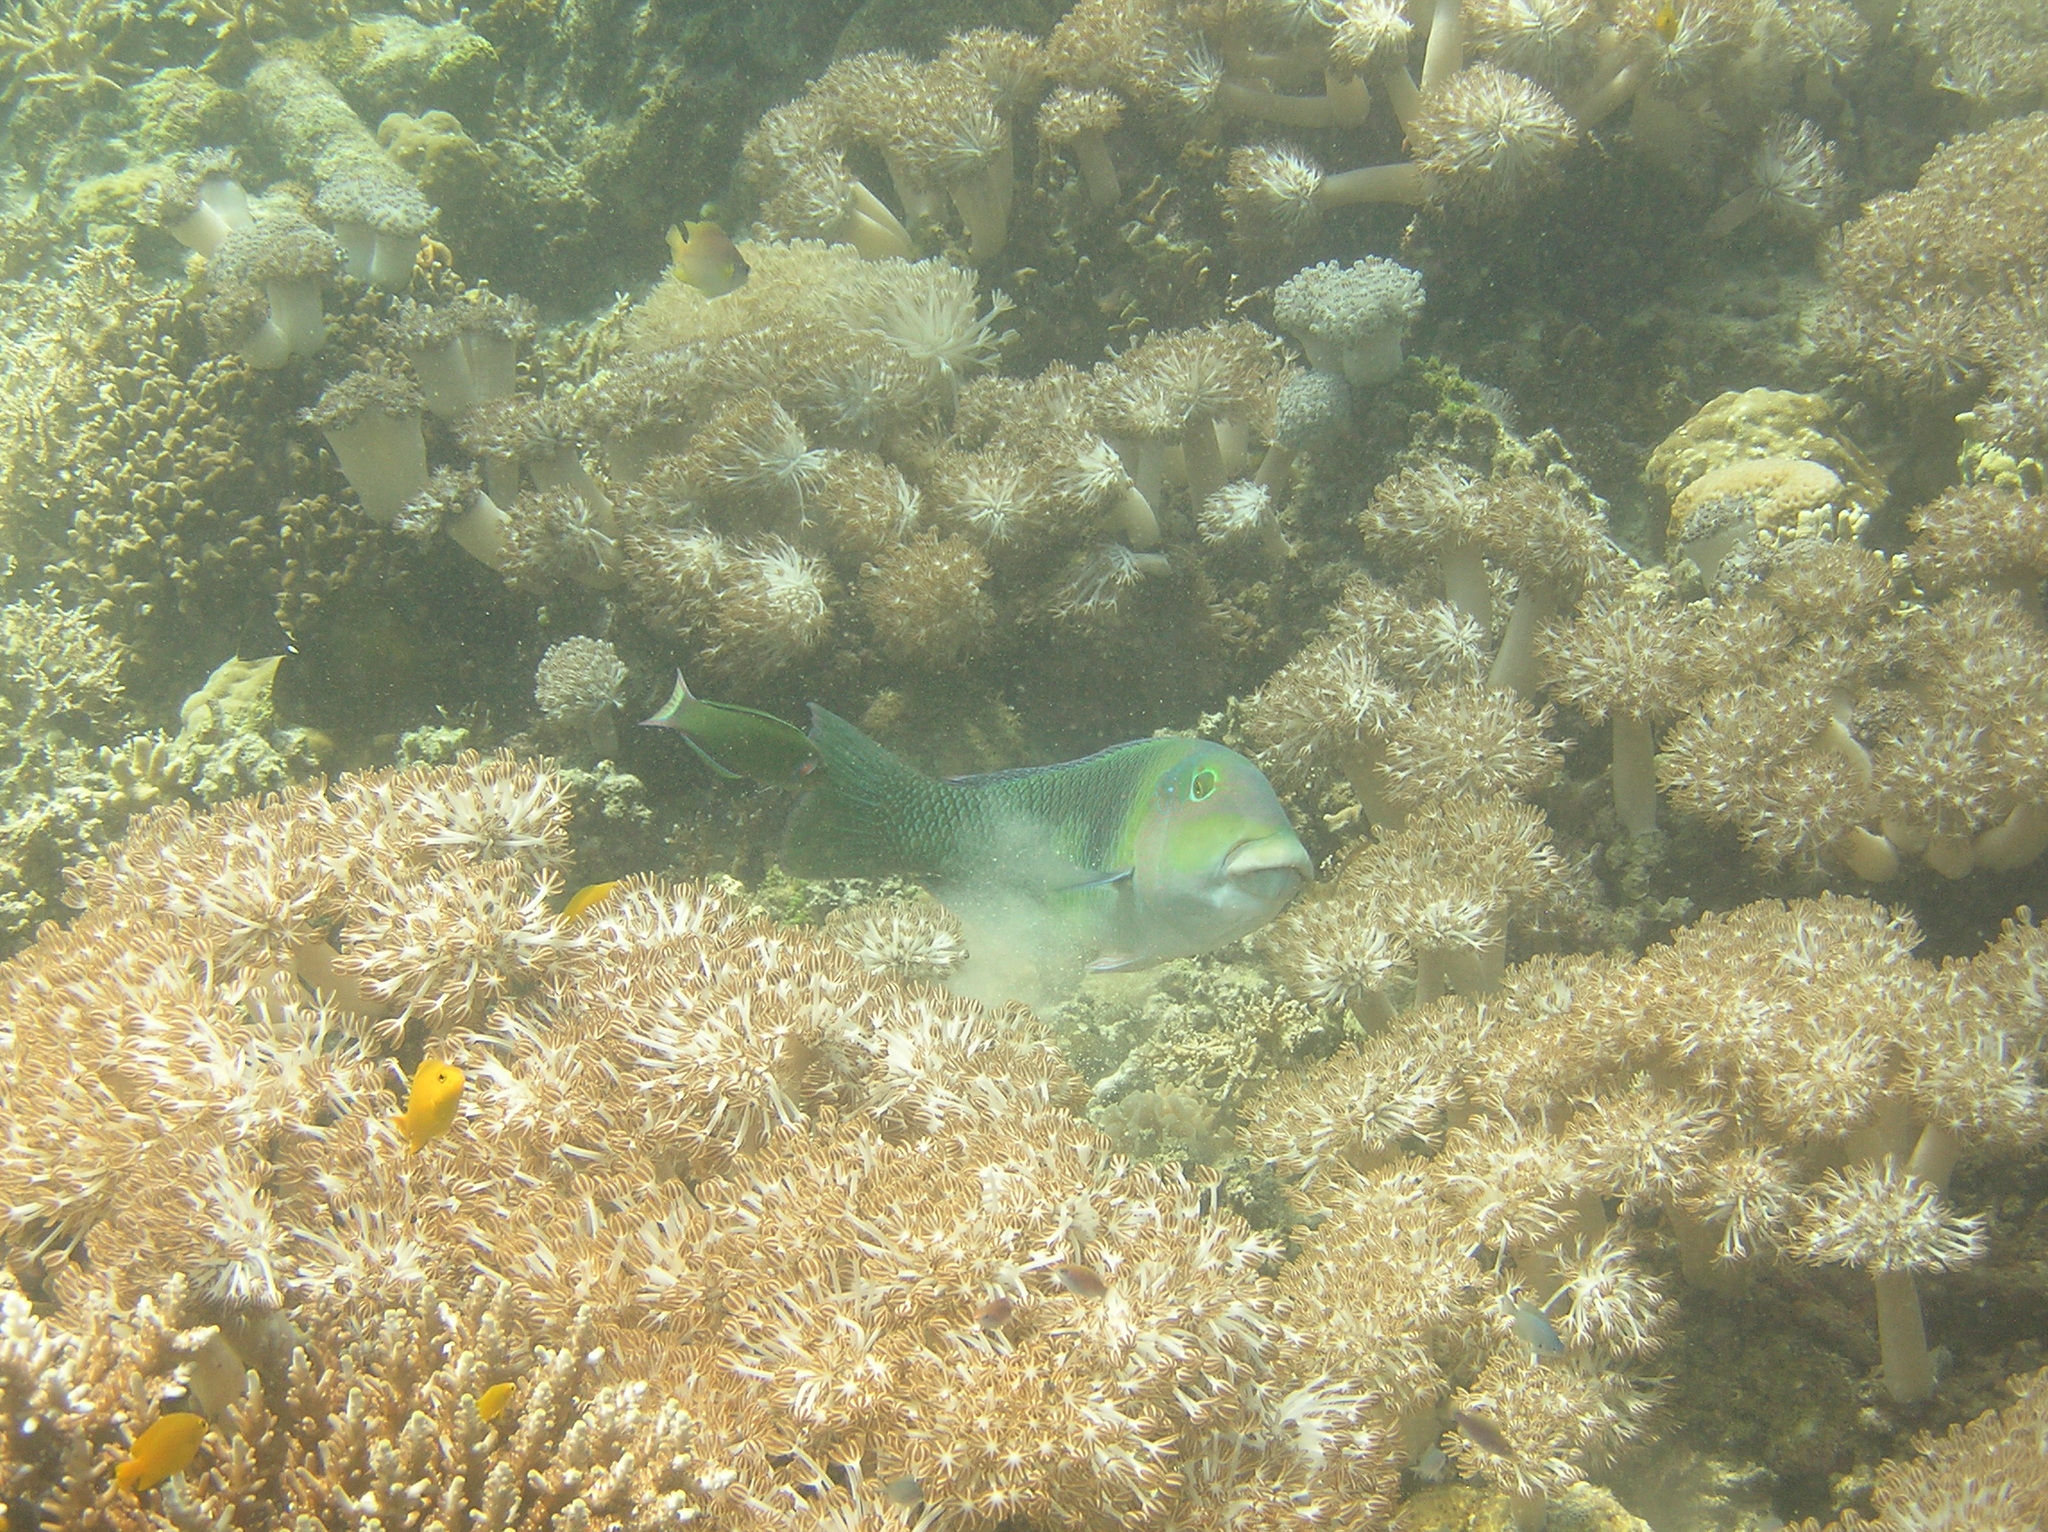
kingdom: Animalia
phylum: Chordata
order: Perciformes
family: Labridae
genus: Hemigymnus
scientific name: Hemigymnus melapterus
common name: Blackeye thicklip
